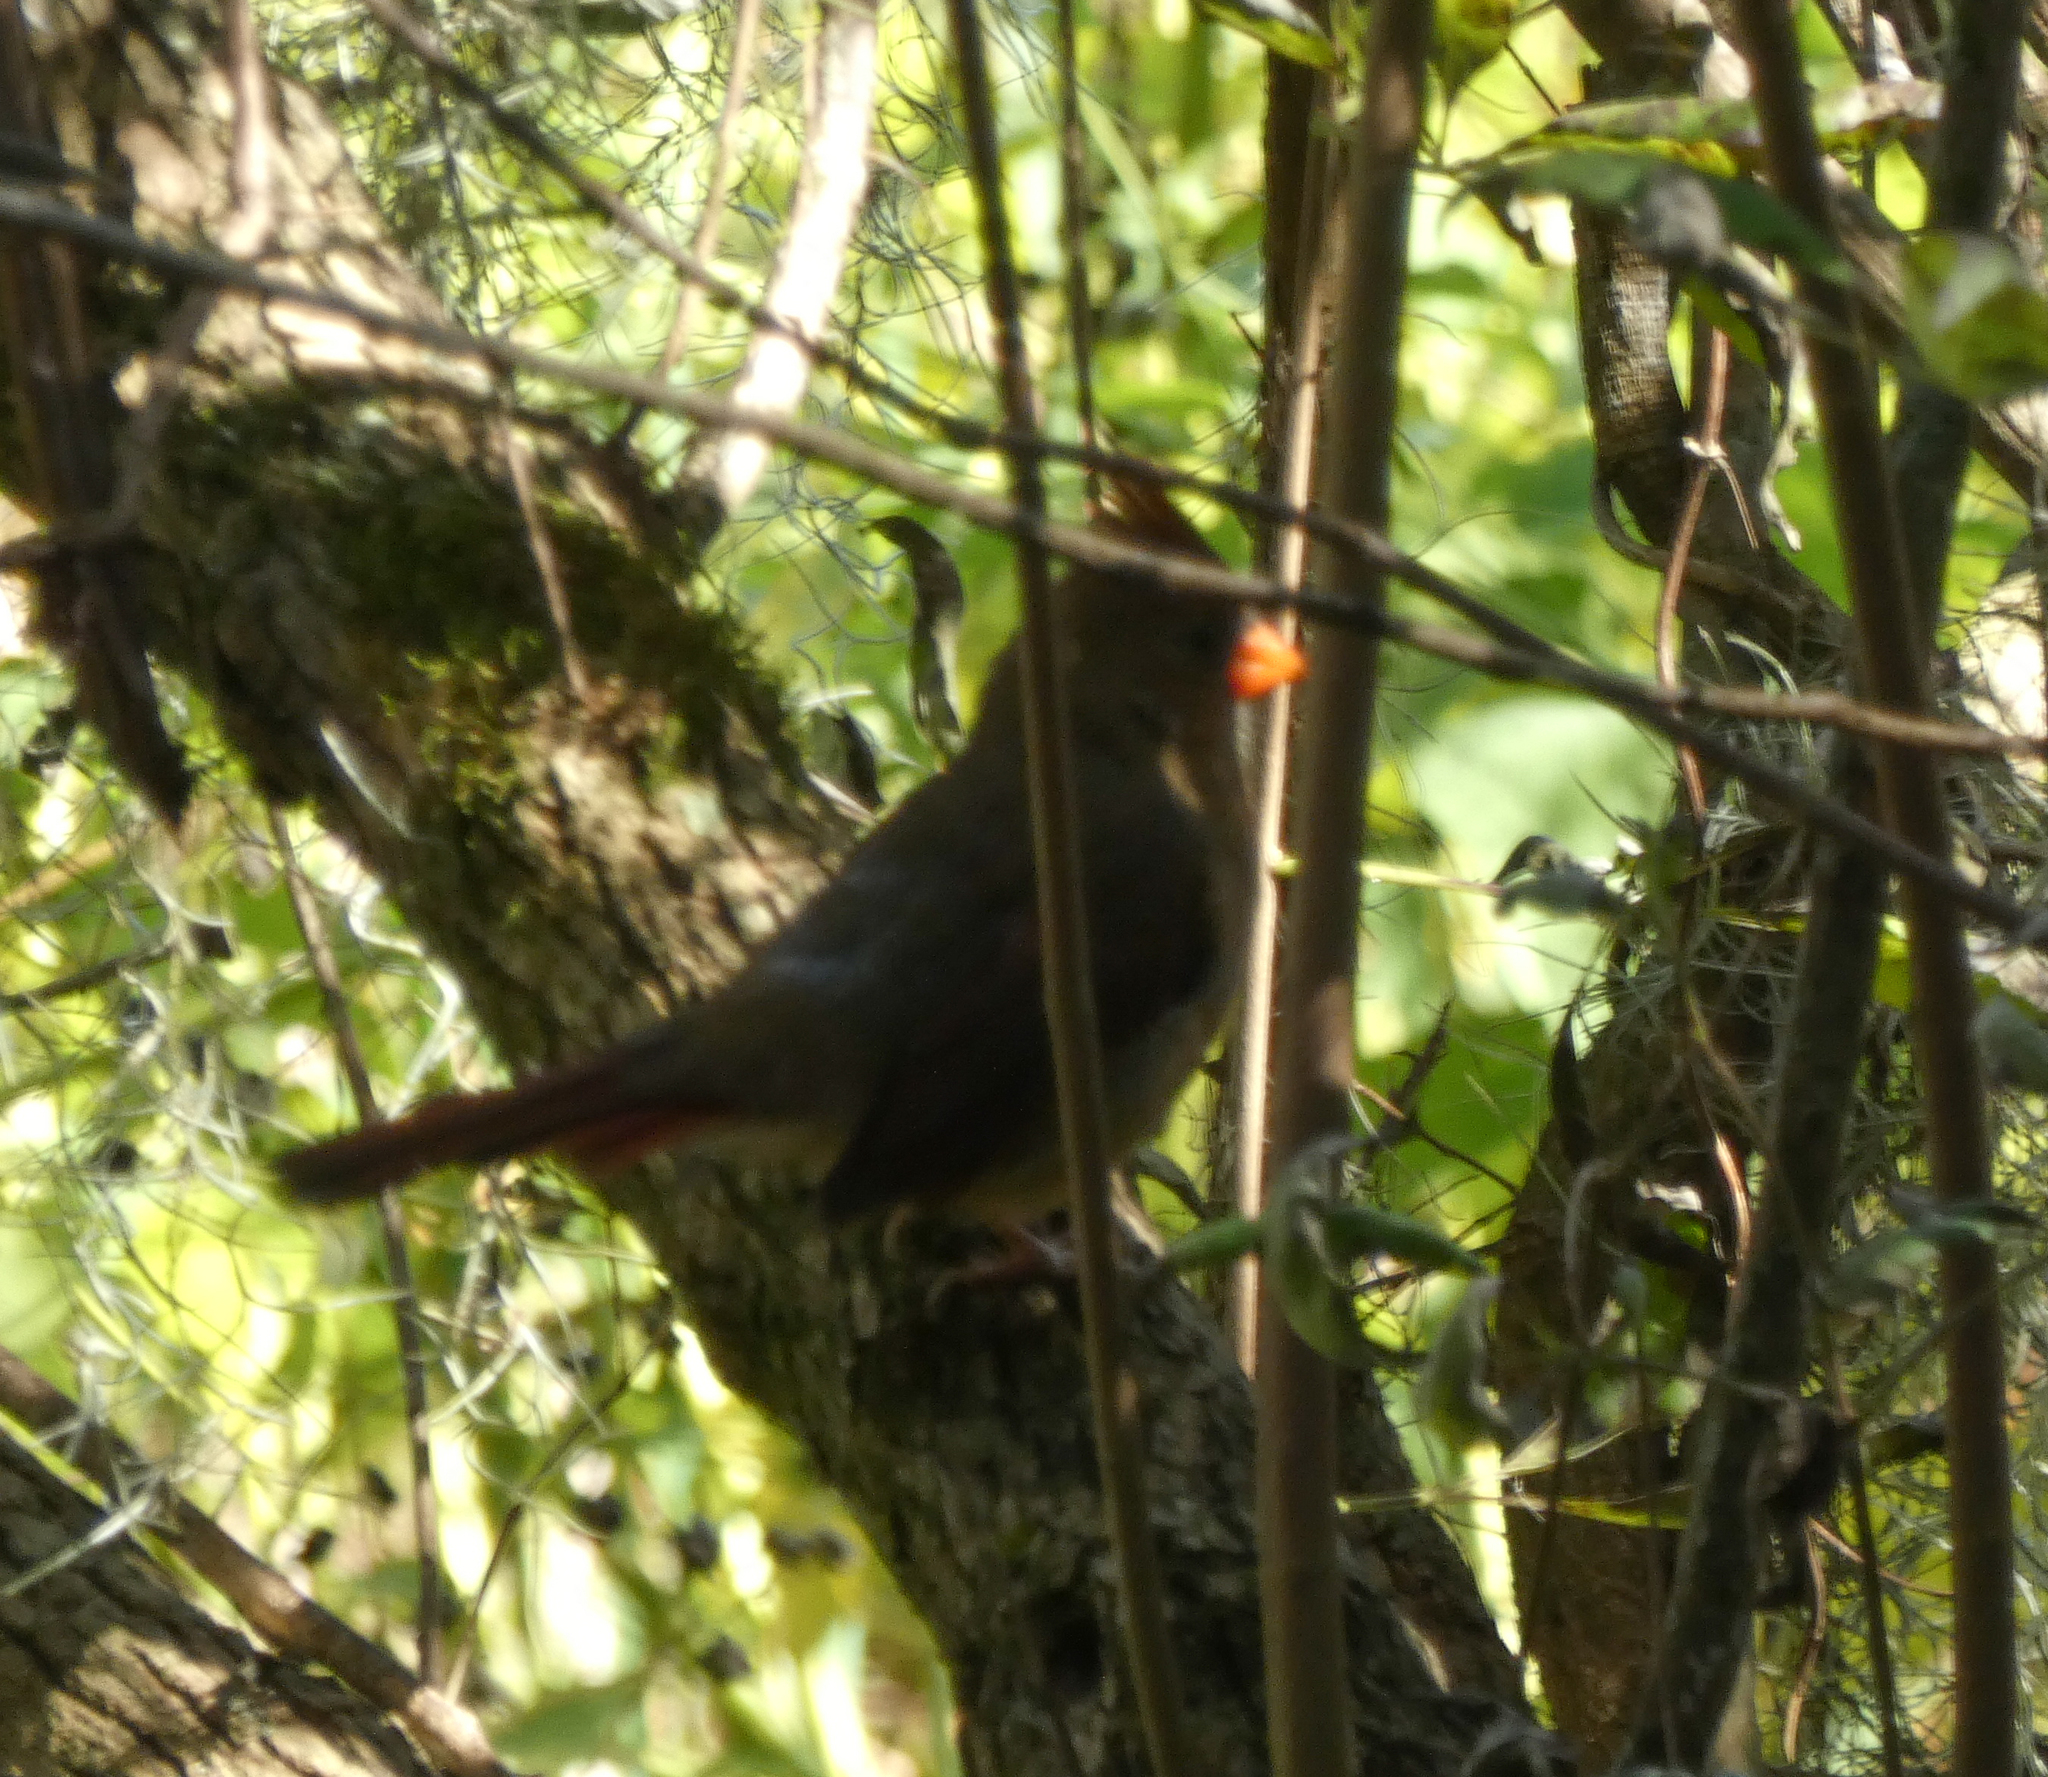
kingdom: Animalia
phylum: Chordata
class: Aves
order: Passeriformes
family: Cardinalidae
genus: Cardinalis
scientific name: Cardinalis cardinalis
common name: Northern cardinal
